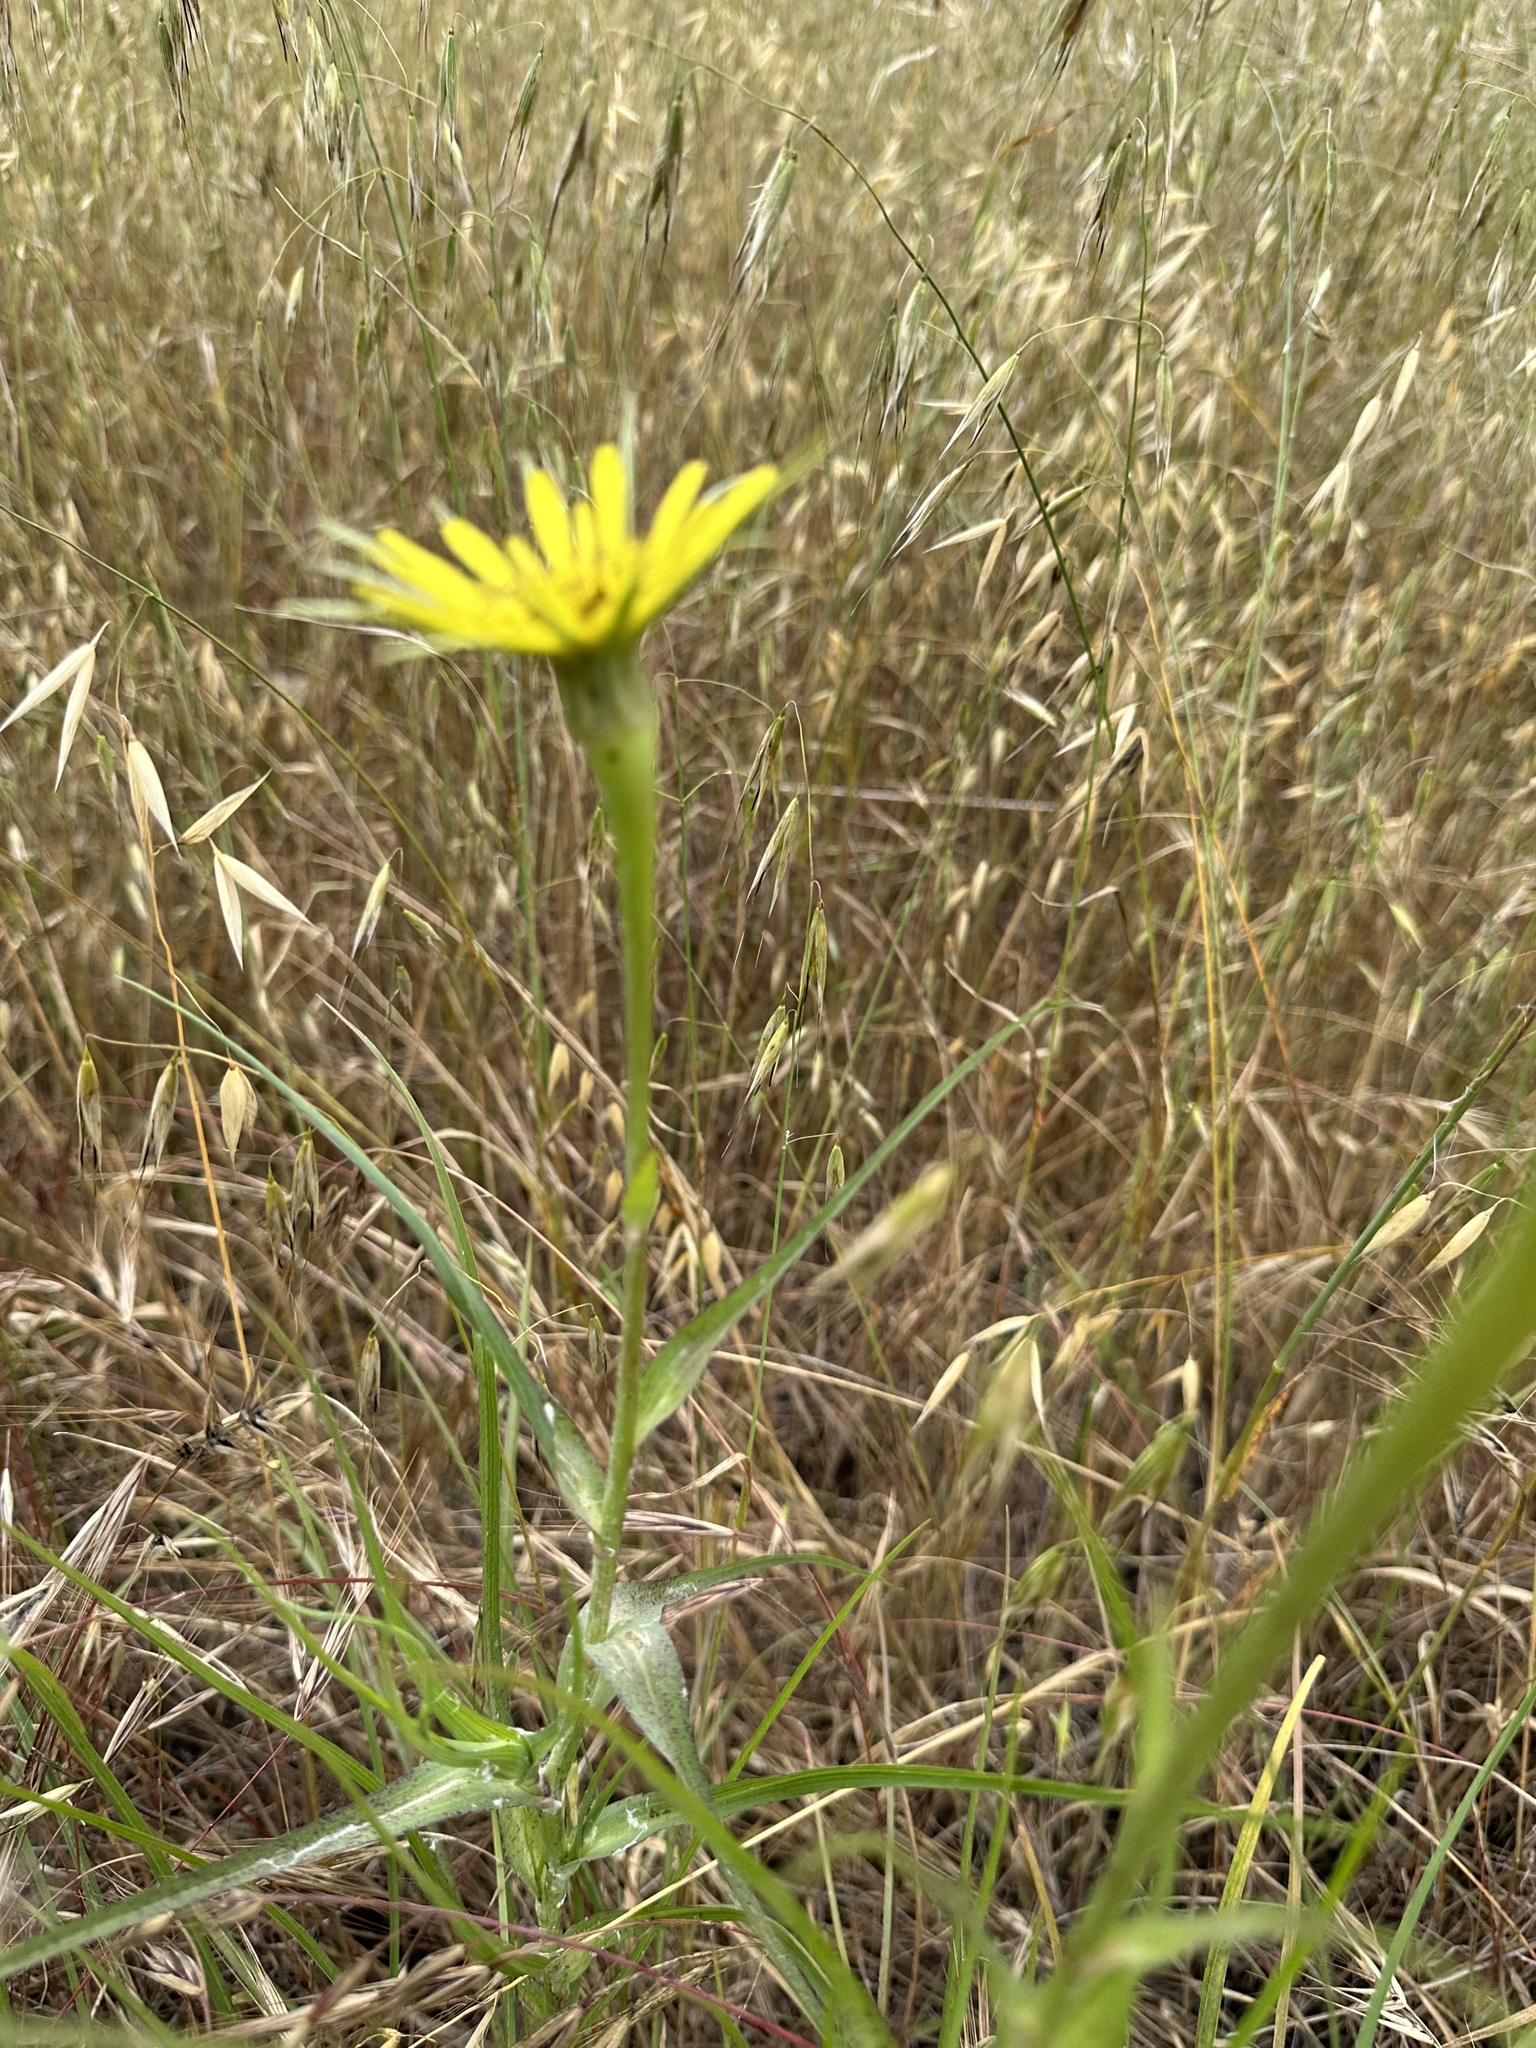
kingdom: Plantae
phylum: Tracheophyta
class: Magnoliopsida
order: Asterales
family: Asteraceae
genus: Tragopogon
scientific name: Tragopogon dubius
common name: Yellow salsify
